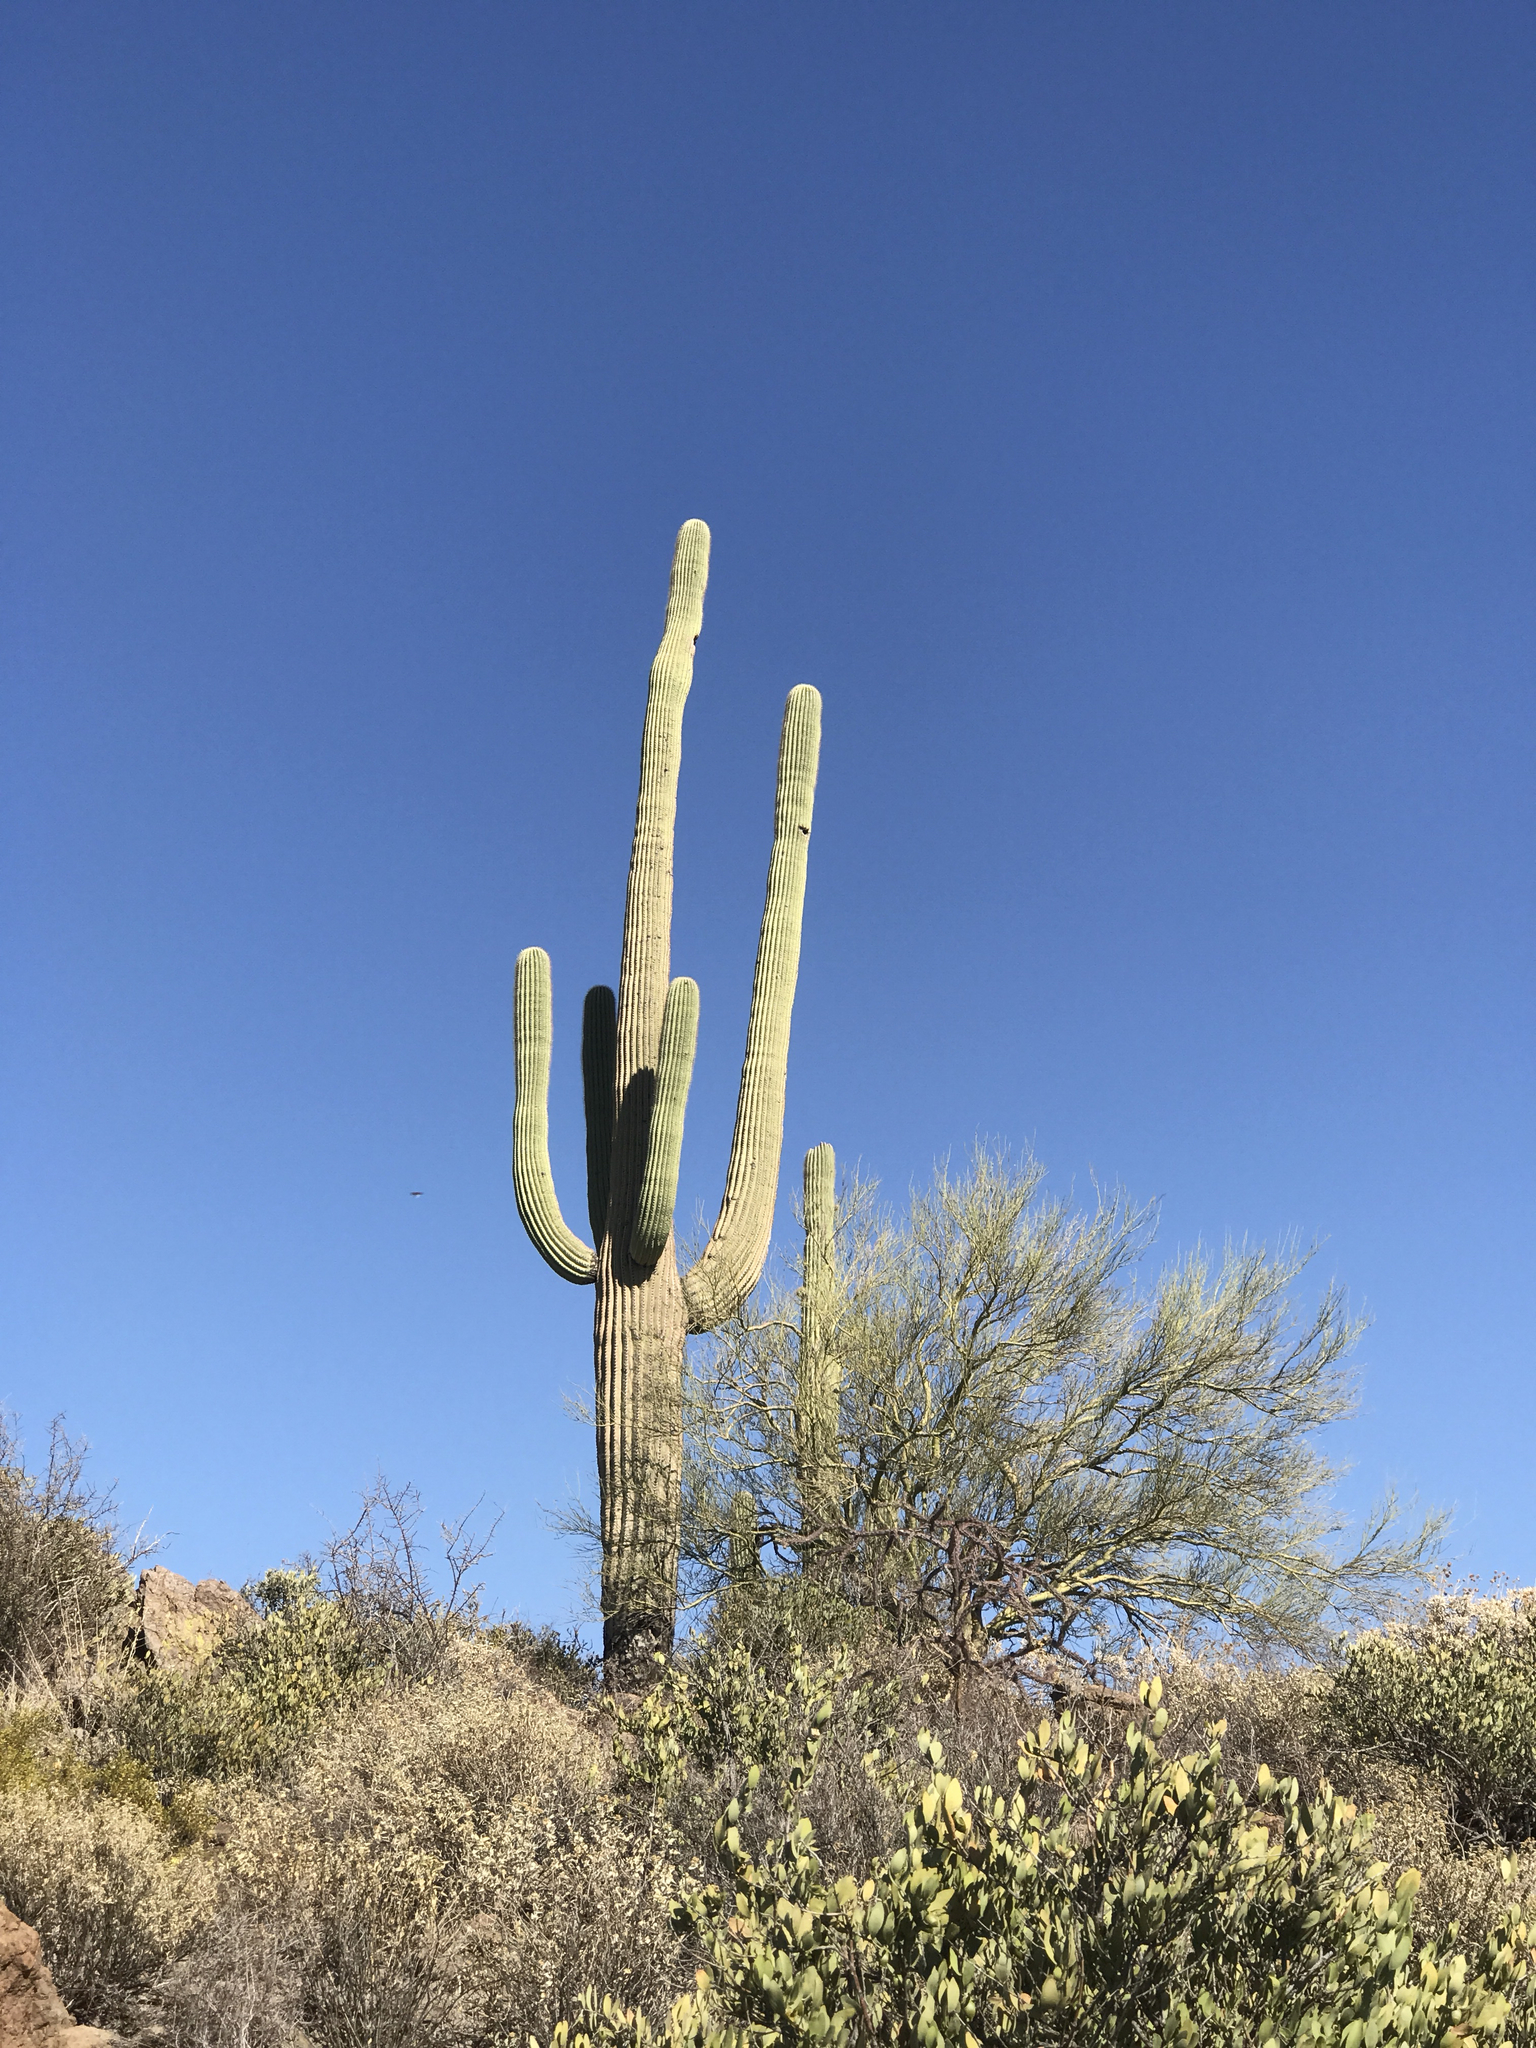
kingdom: Plantae
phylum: Tracheophyta
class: Magnoliopsida
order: Caryophyllales
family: Cactaceae
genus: Carnegiea
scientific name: Carnegiea gigantea
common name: Saguaro
